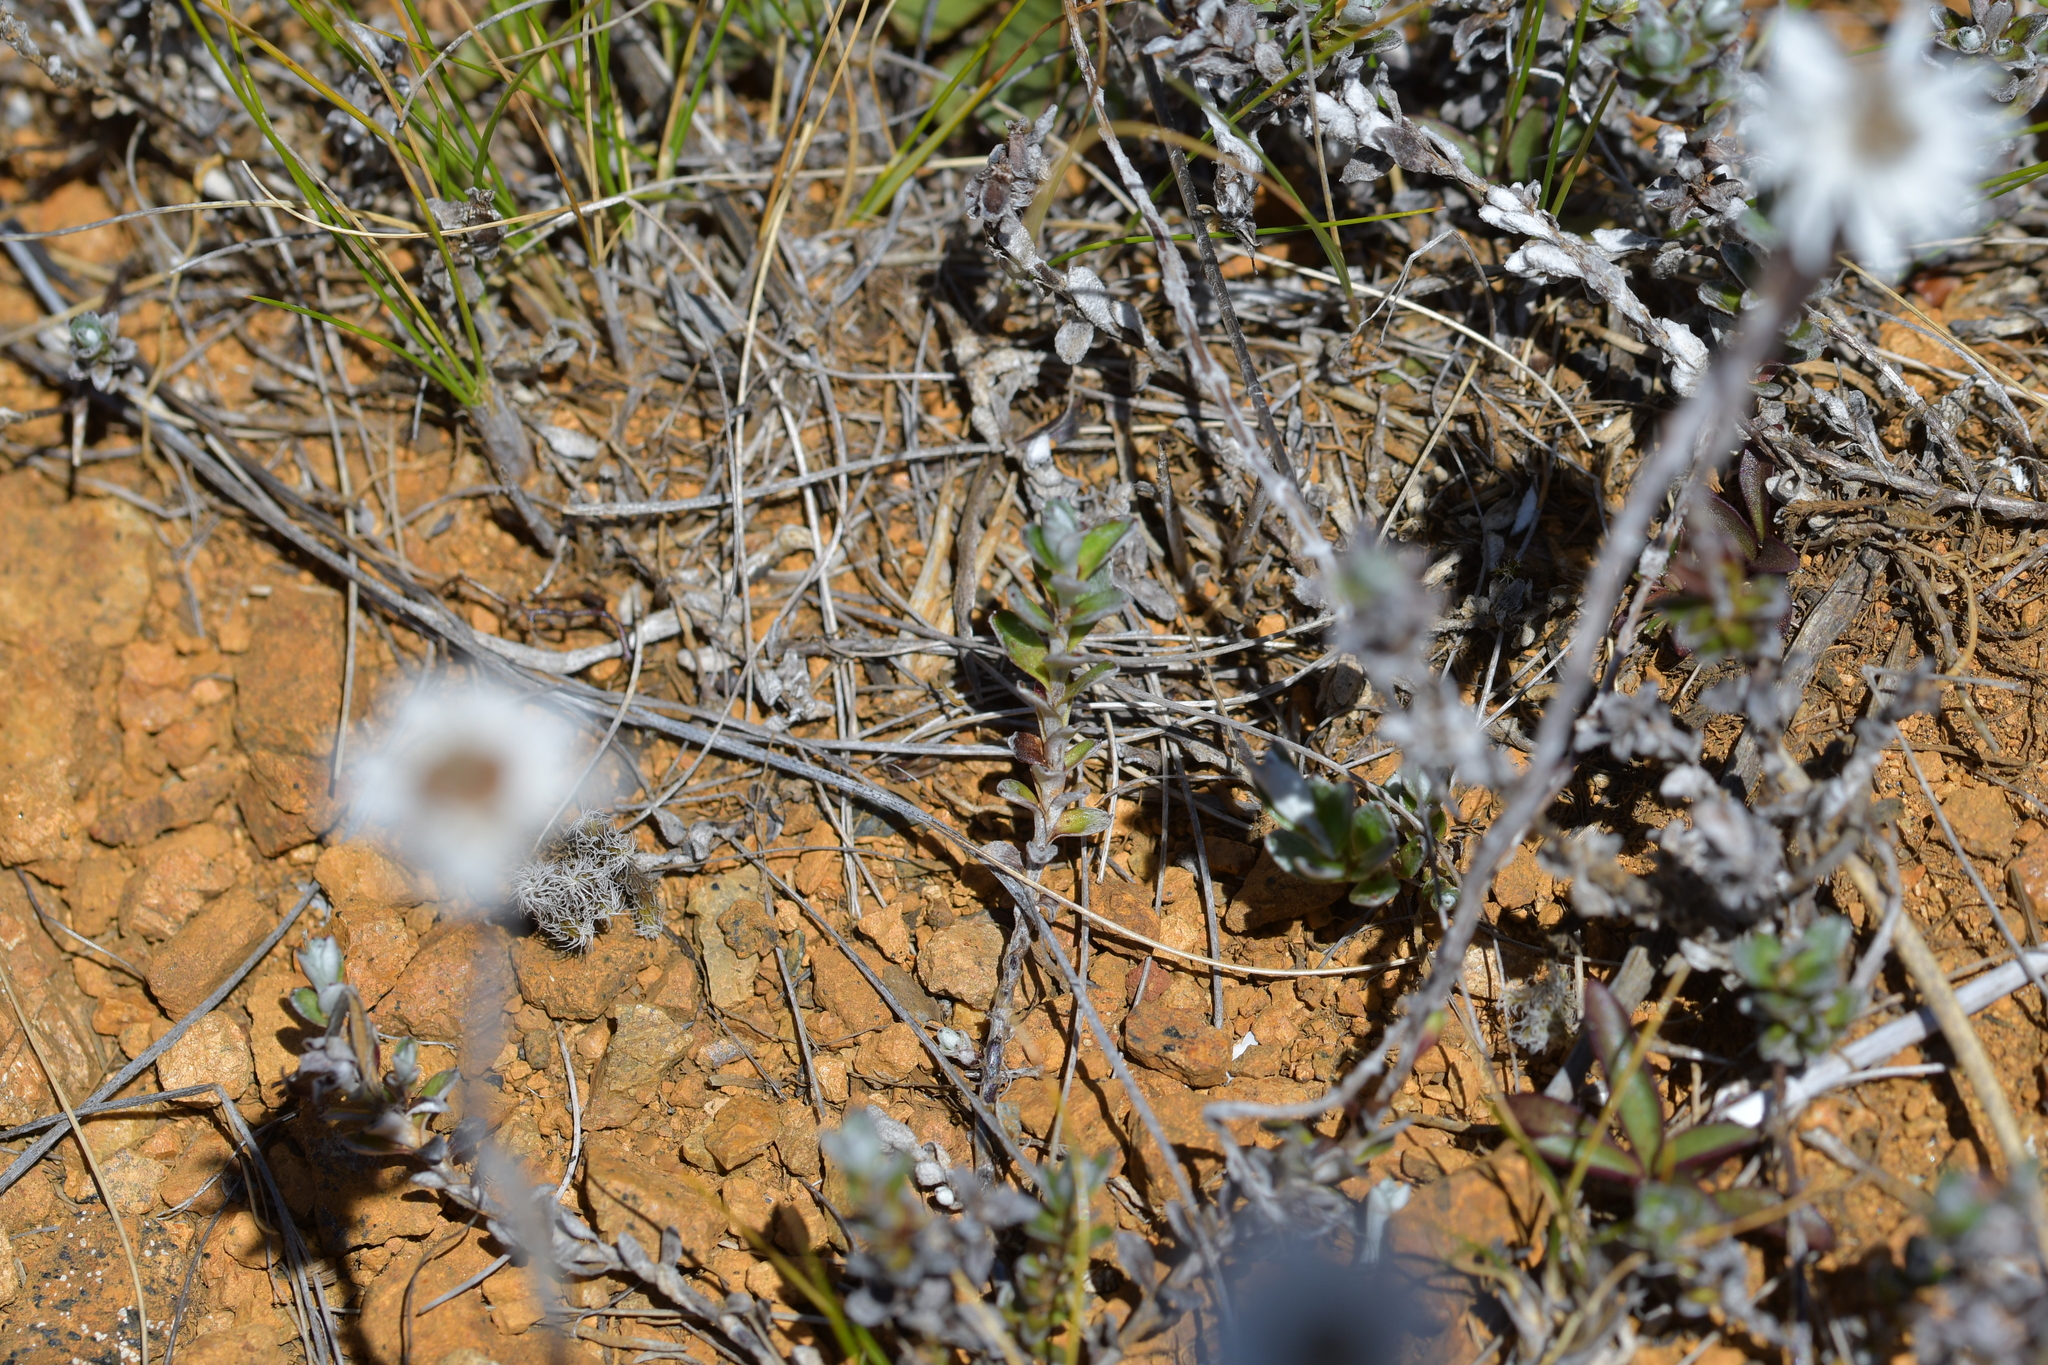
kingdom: Plantae
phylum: Tracheophyta
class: Magnoliopsida
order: Asterales
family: Asteraceae
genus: Anaphalioides
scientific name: Anaphalioides bellidioides
